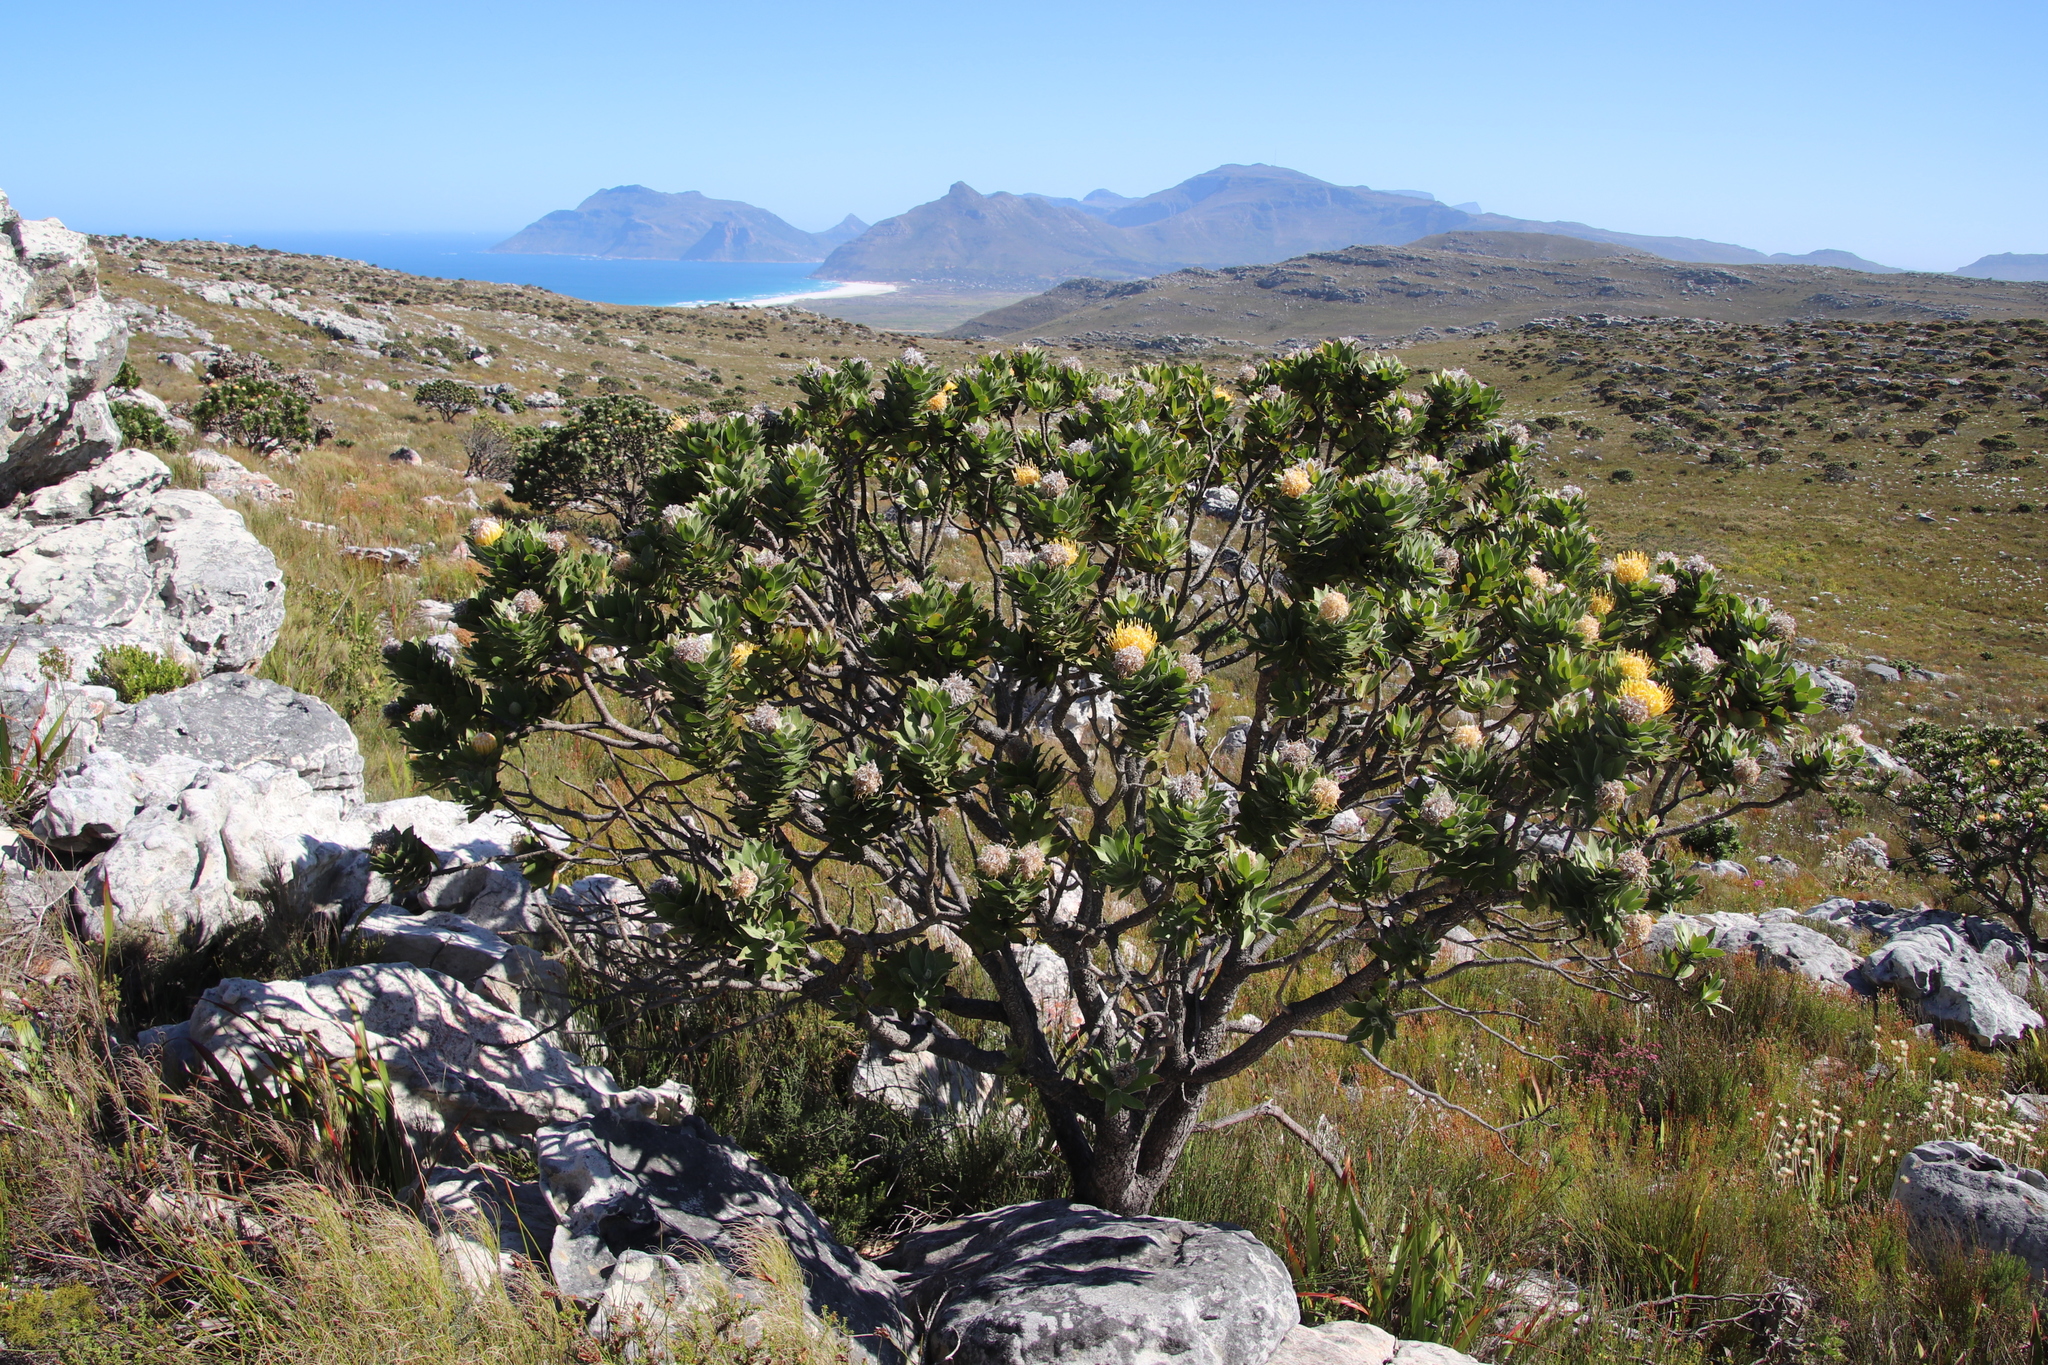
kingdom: Plantae
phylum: Tracheophyta
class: Magnoliopsida
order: Proteales
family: Proteaceae
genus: Leucospermum
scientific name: Leucospermum conocarpodendron
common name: Tree pincushion
